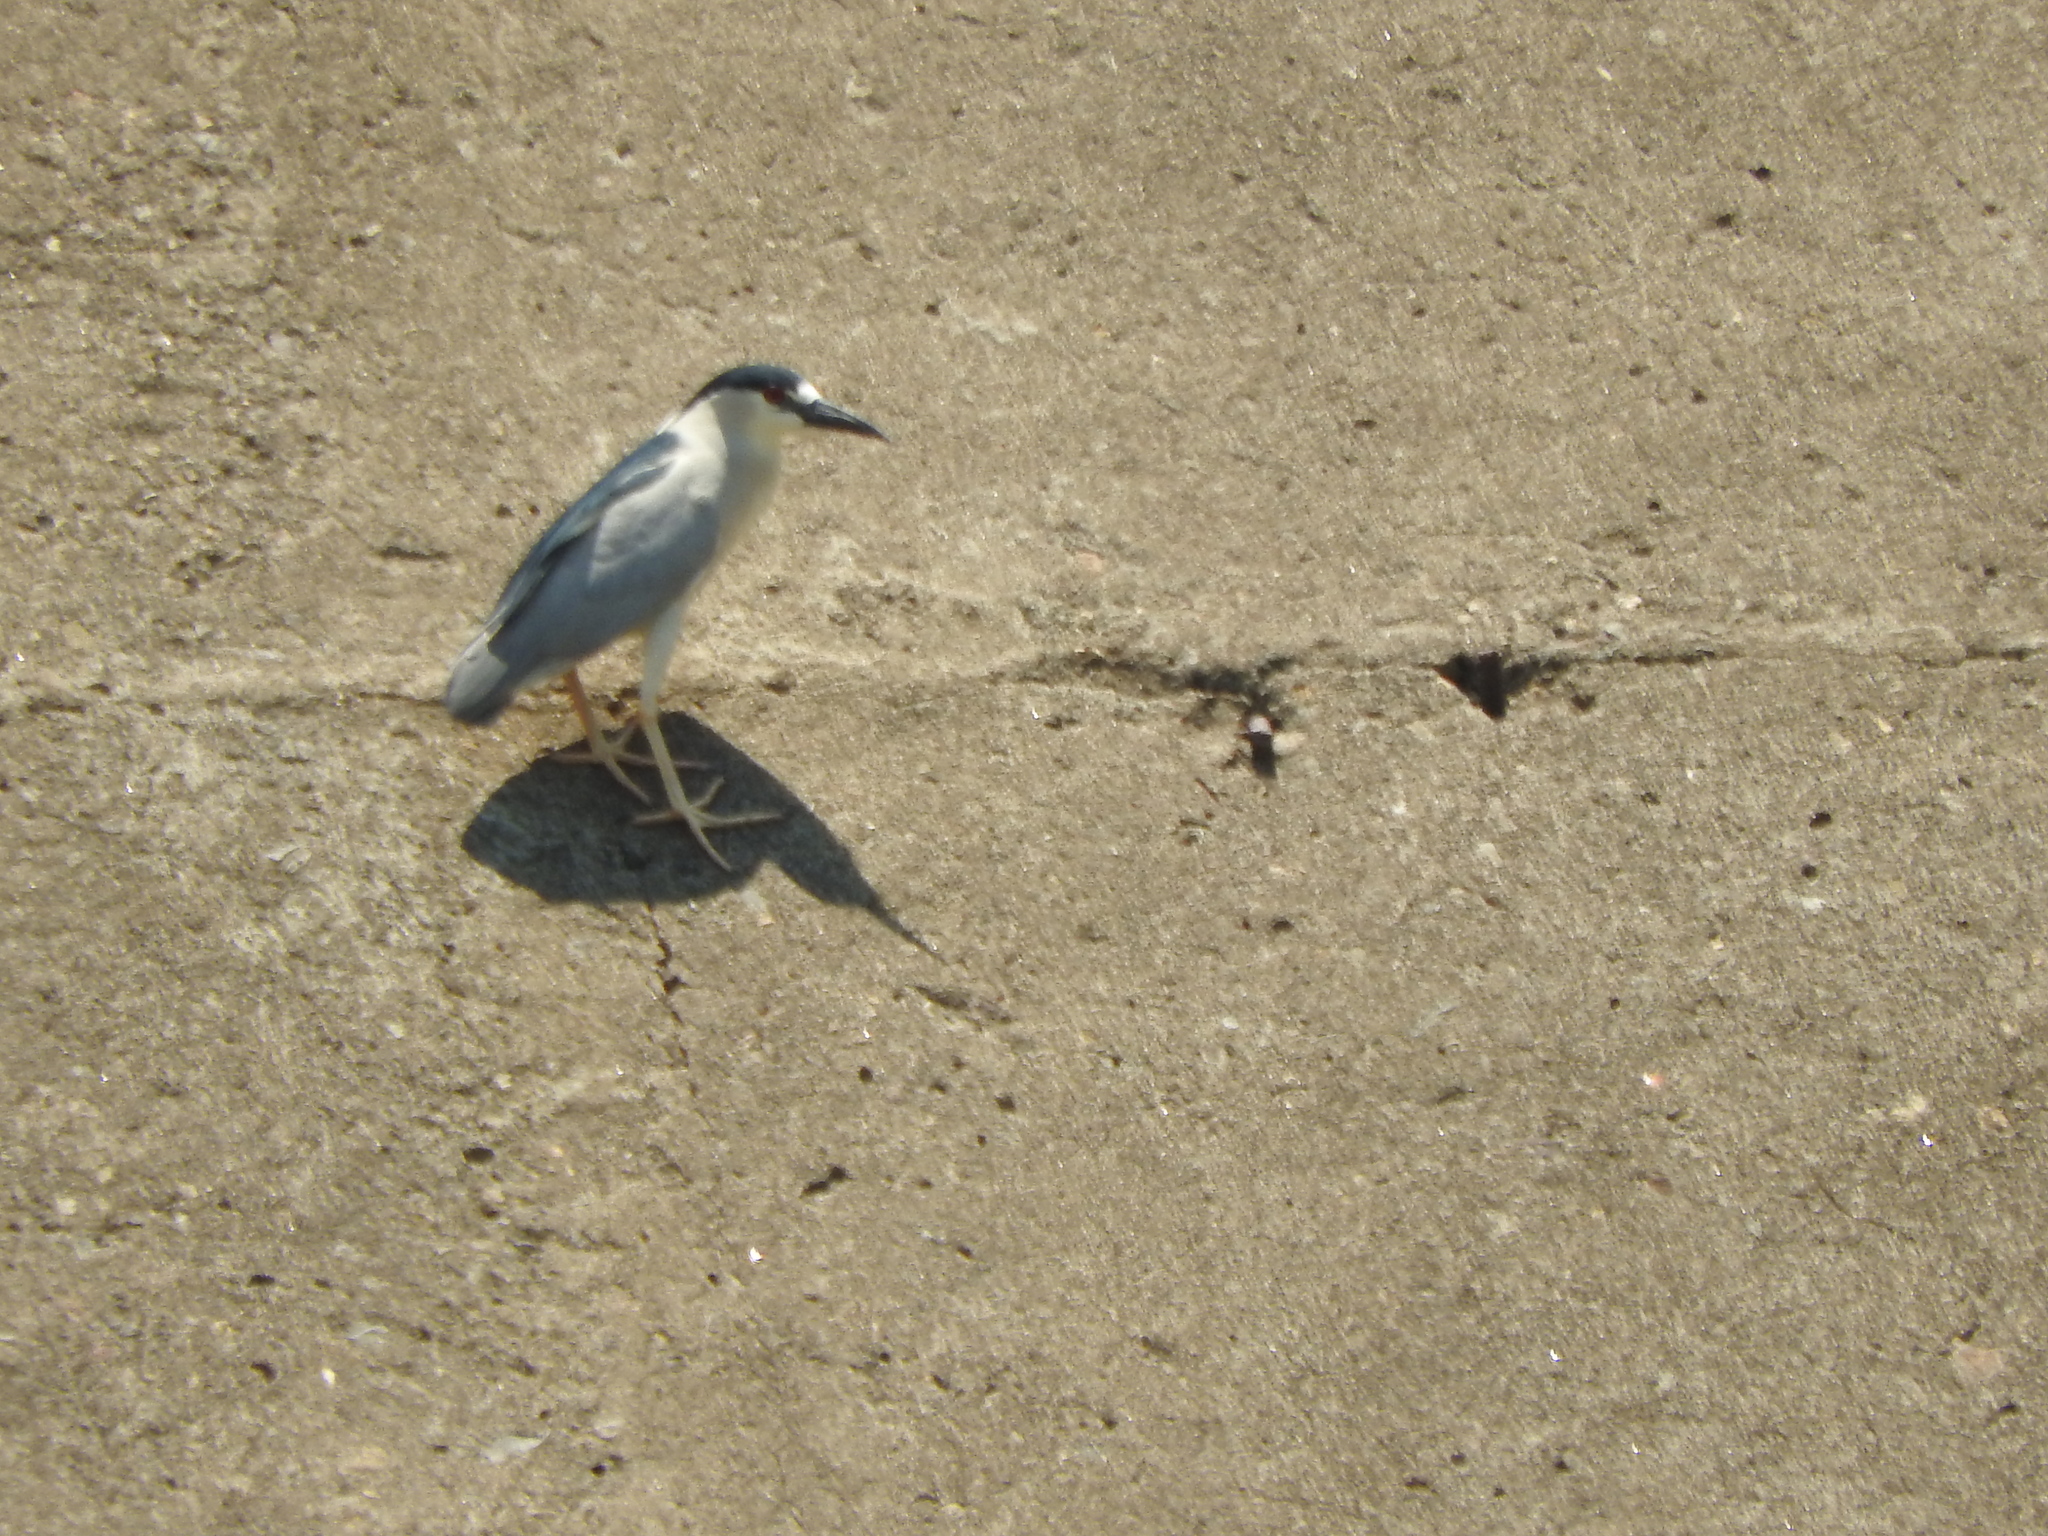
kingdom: Animalia
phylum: Chordata
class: Aves
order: Pelecaniformes
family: Ardeidae
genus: Nycticorax
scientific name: Nycticorax nycticorax
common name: Black-crowned night heron
